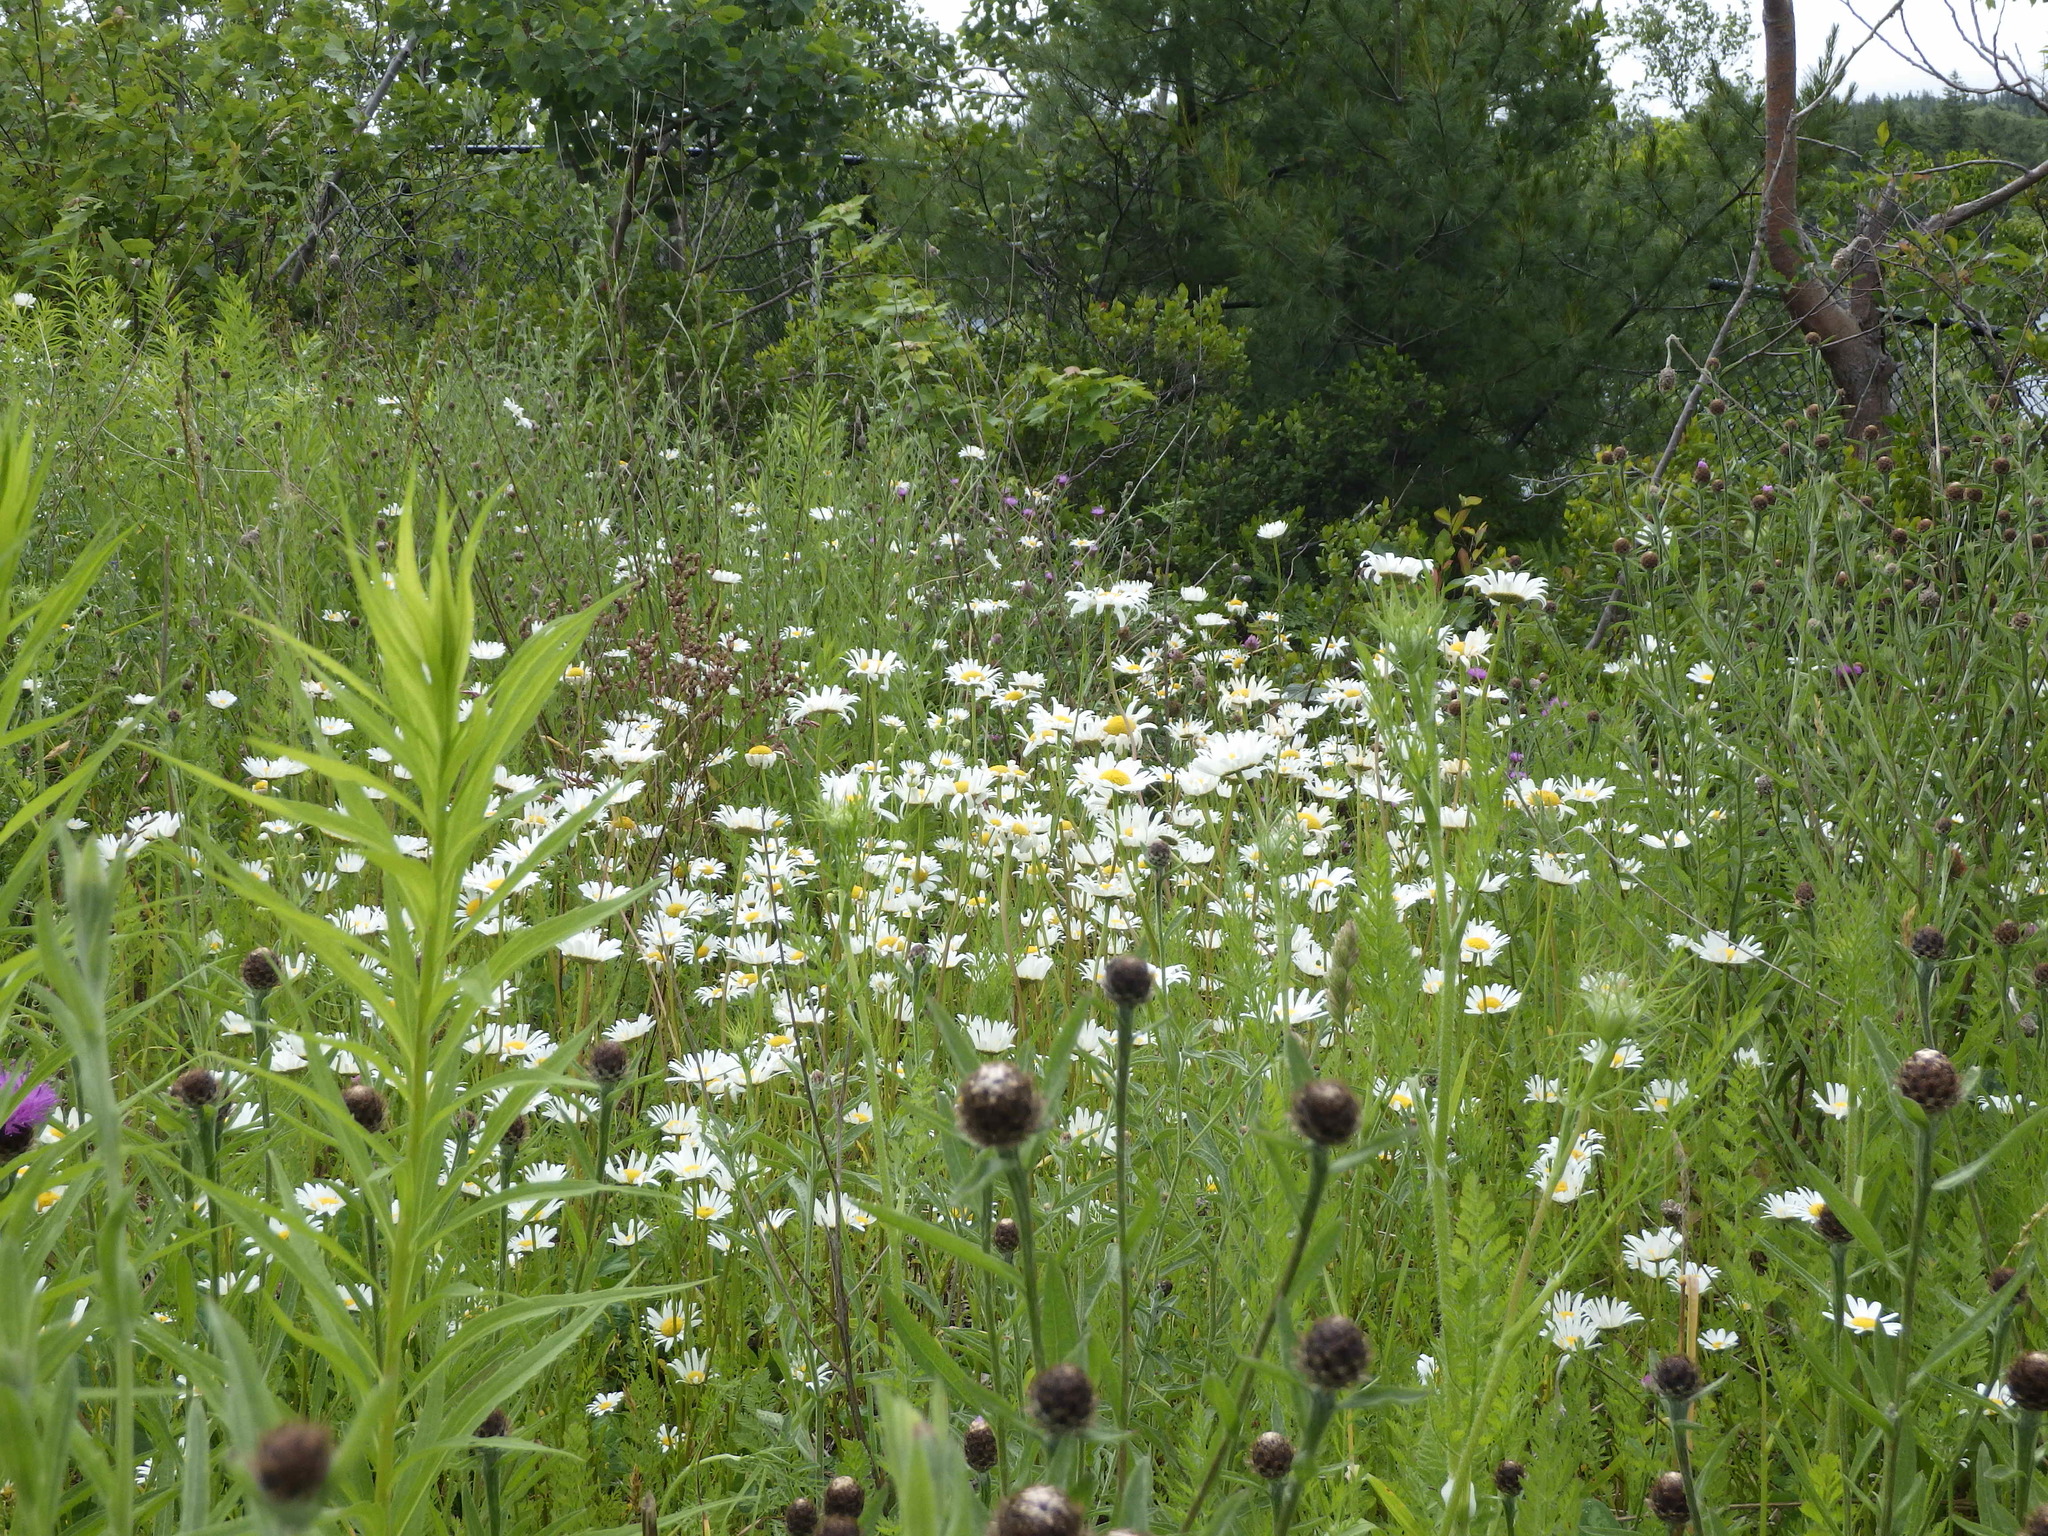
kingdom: Plantae
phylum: Tracheophyta
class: Magnoliopsida
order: Asterales
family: Asteraceae
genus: Leucanthemum
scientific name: Leucanthemum vulgare
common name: Oxeye daisy
